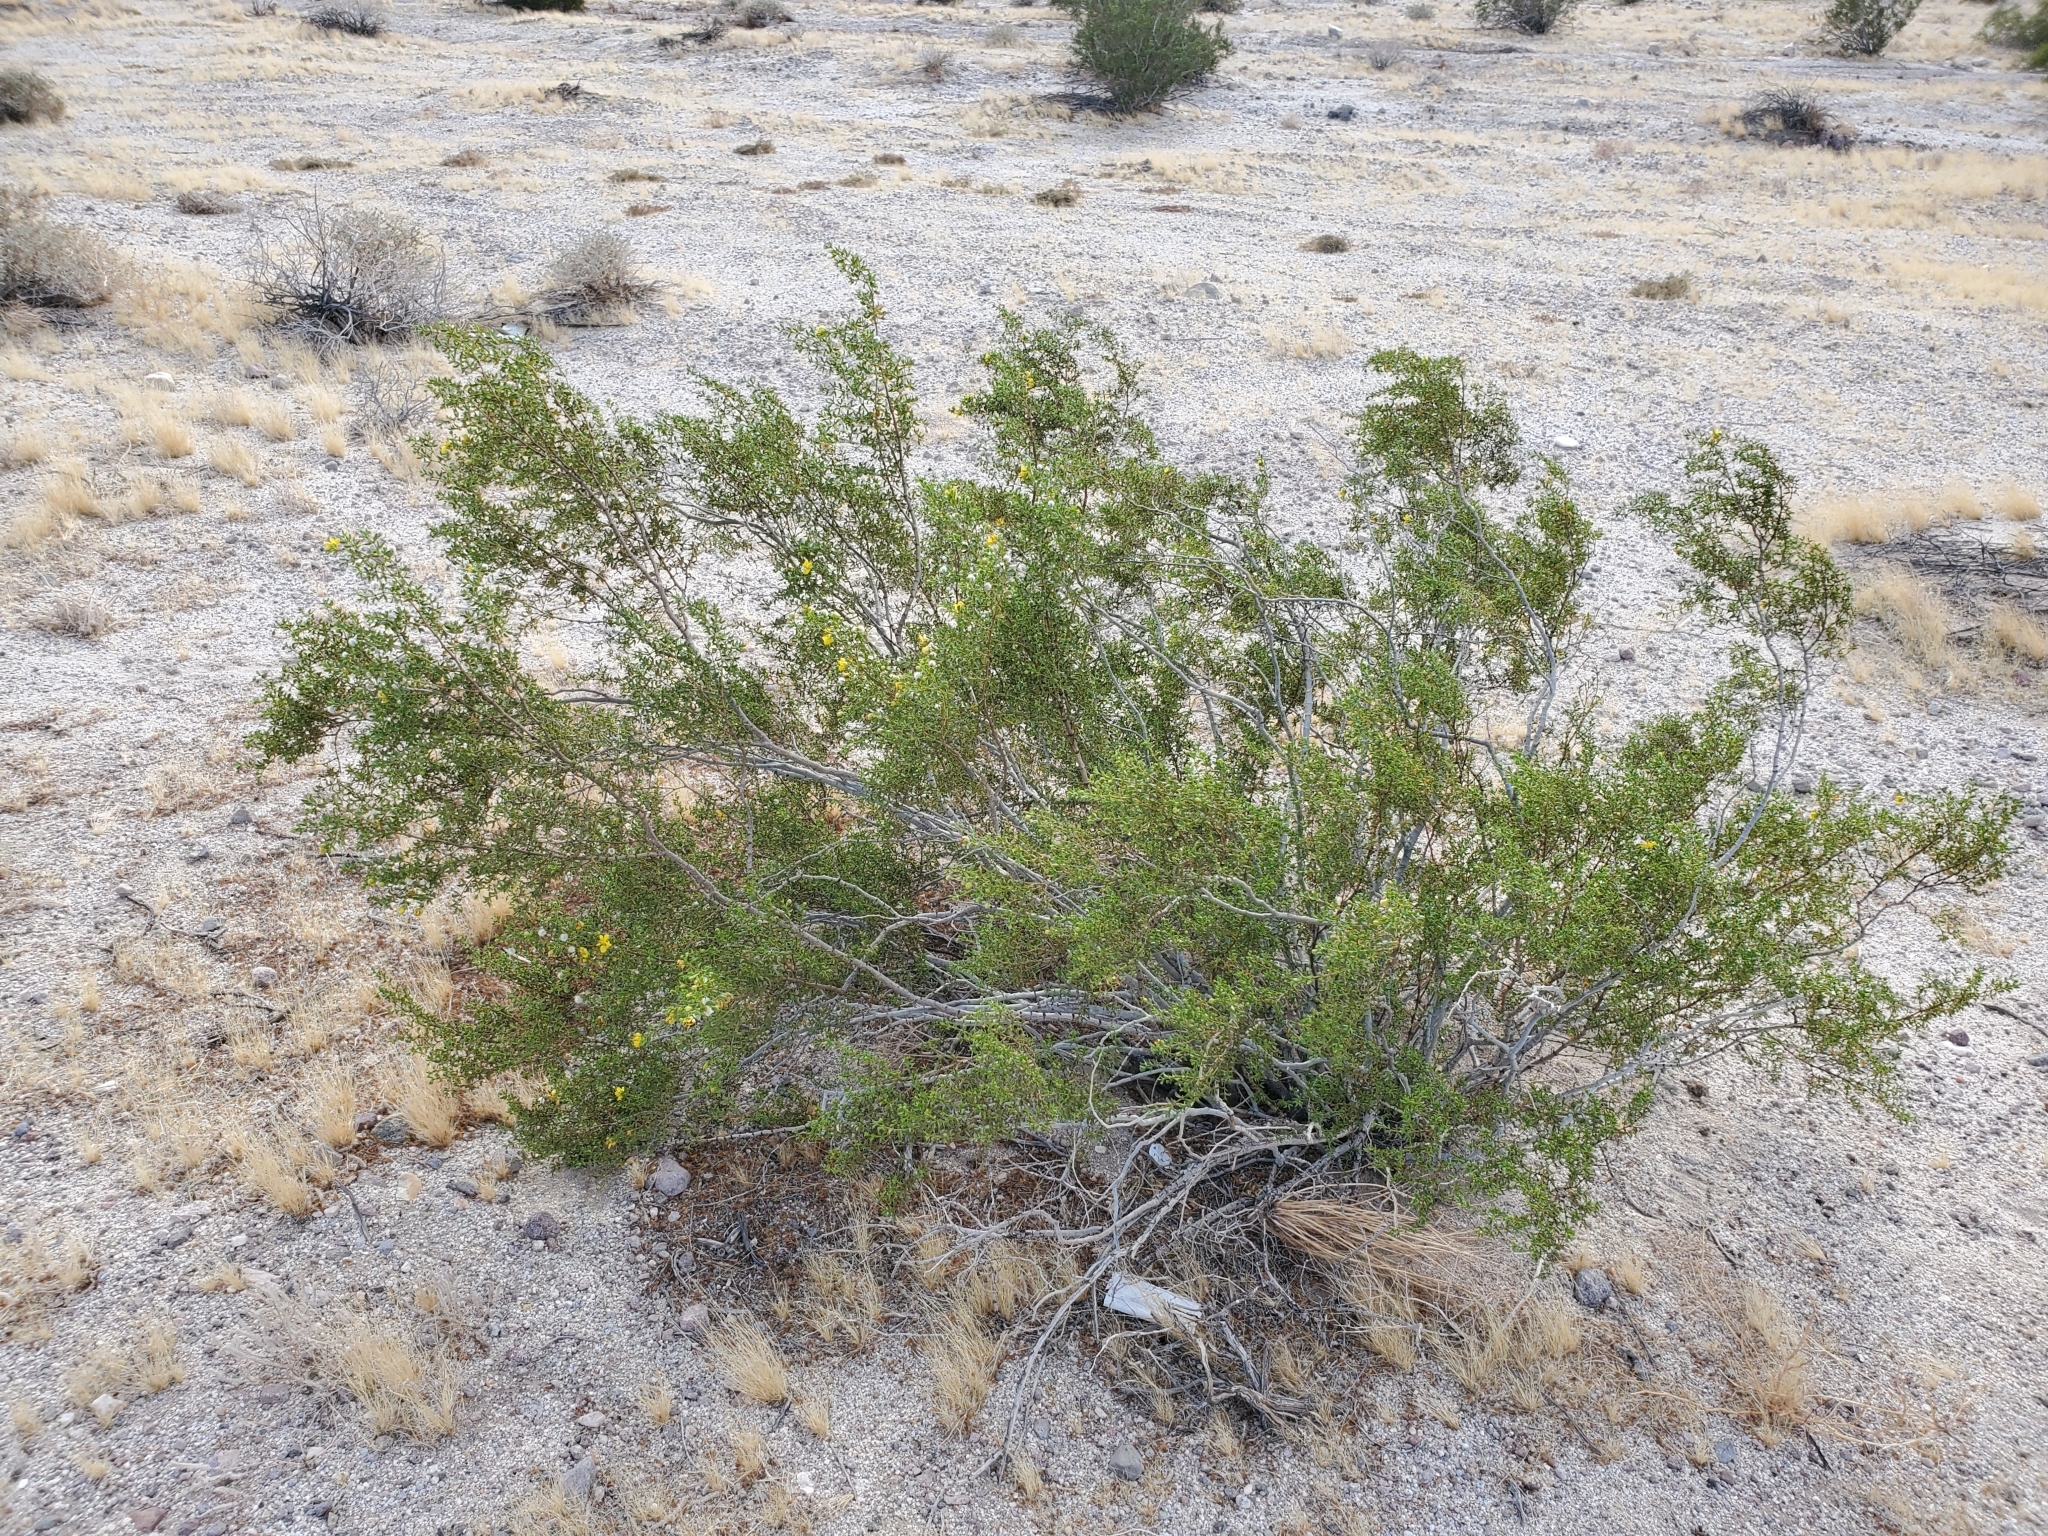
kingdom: Plantae
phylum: Tracheophyta
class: Magnoliopsida
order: Zygophyllales
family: Zygophyllaceae
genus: Larrea
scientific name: Larrea tridentata
